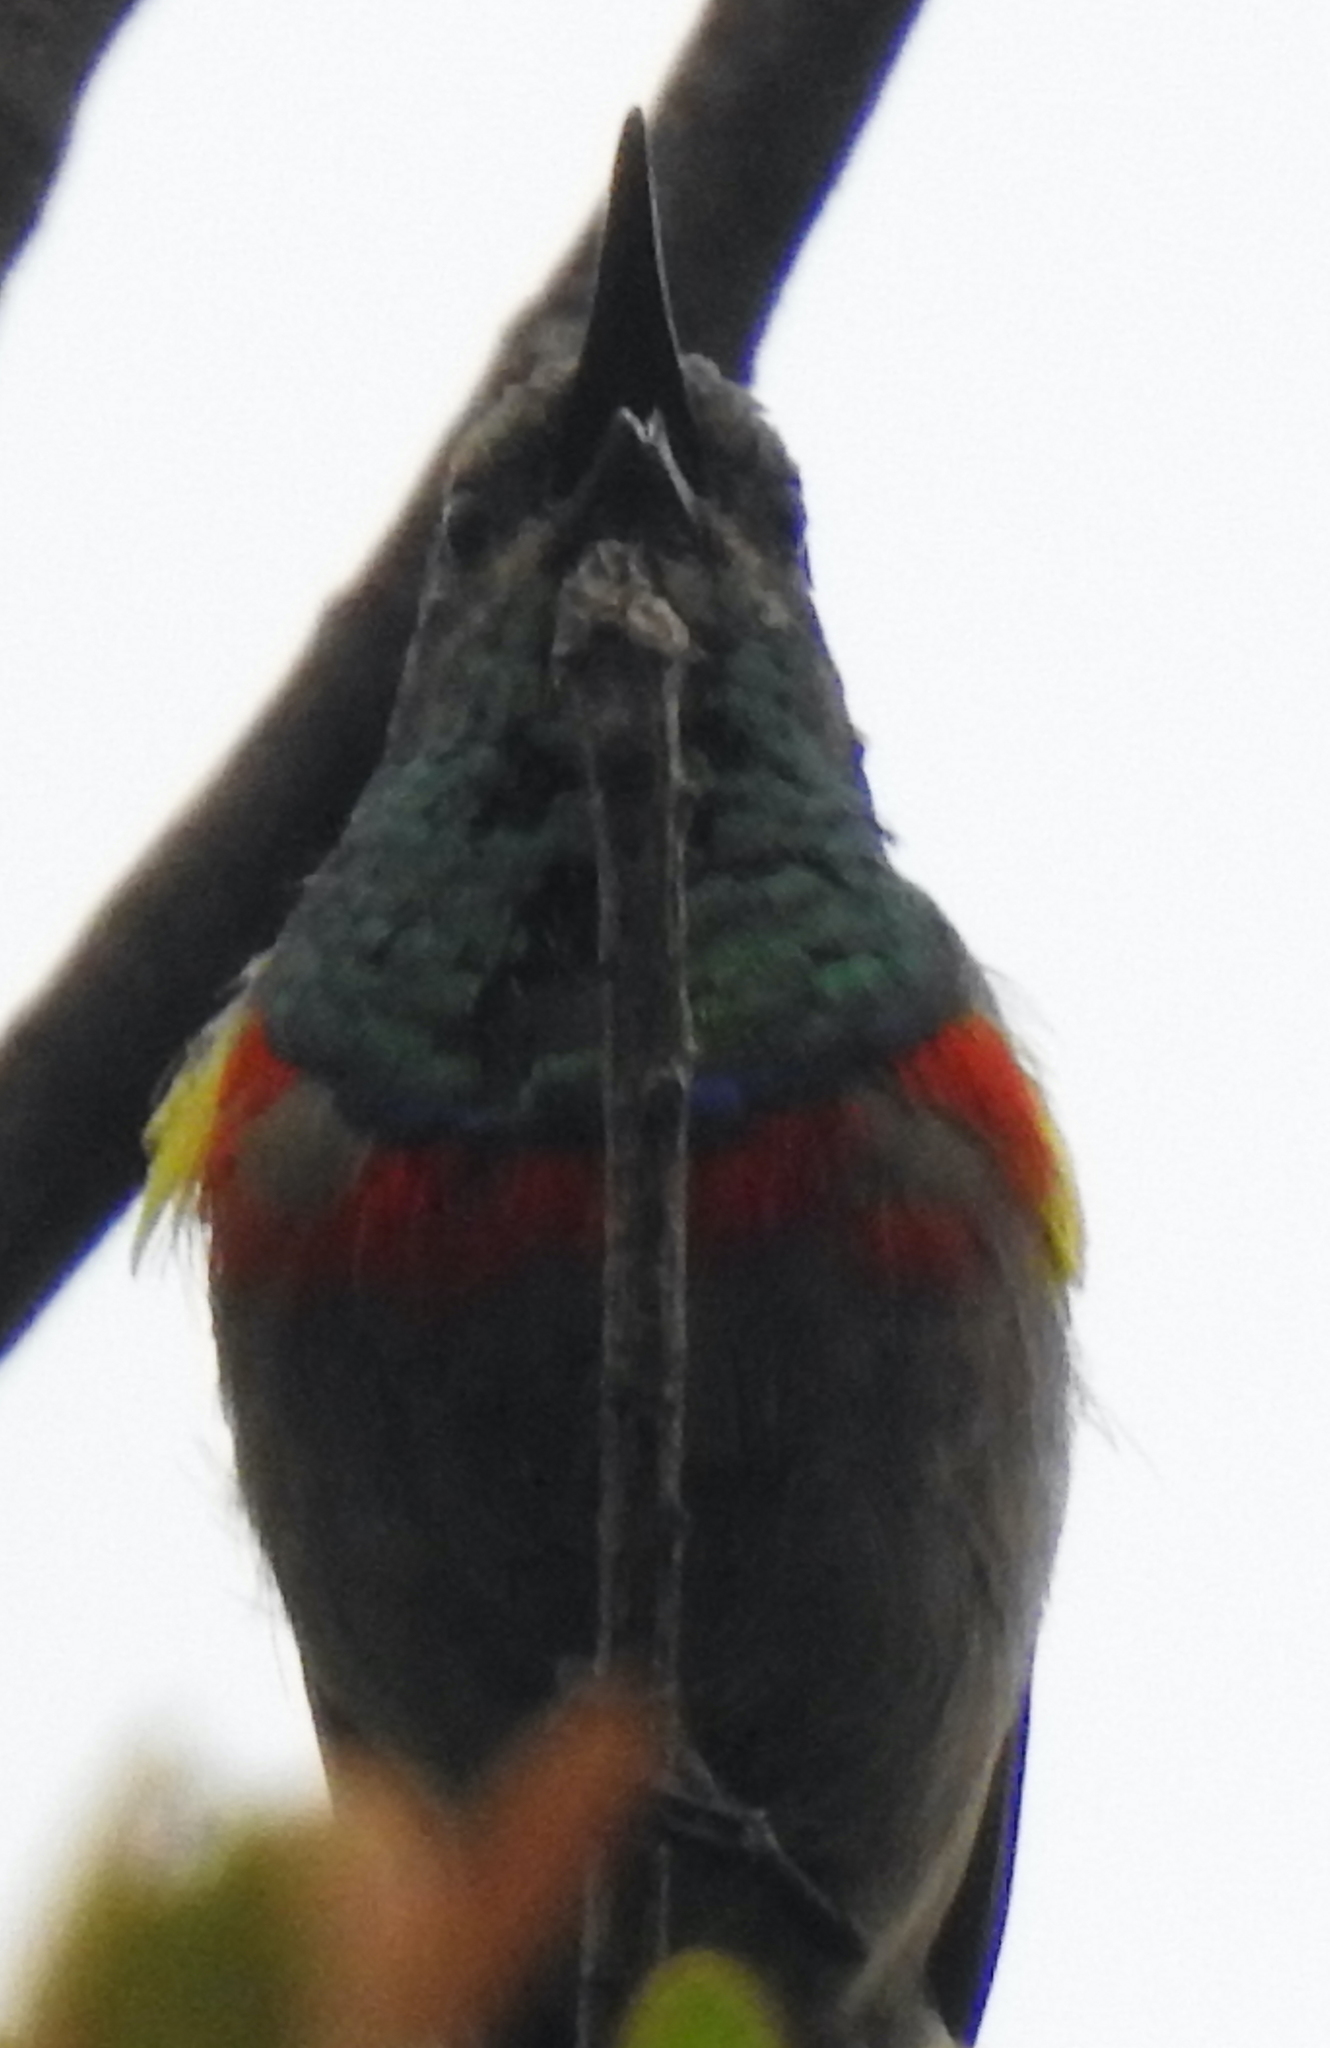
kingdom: Animalia
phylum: Chordata
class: Aves
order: Passeriformes
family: Nectariniidae
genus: Cinnyris
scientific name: Cinnyris chalybeus
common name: Southern double-collared sunbird
